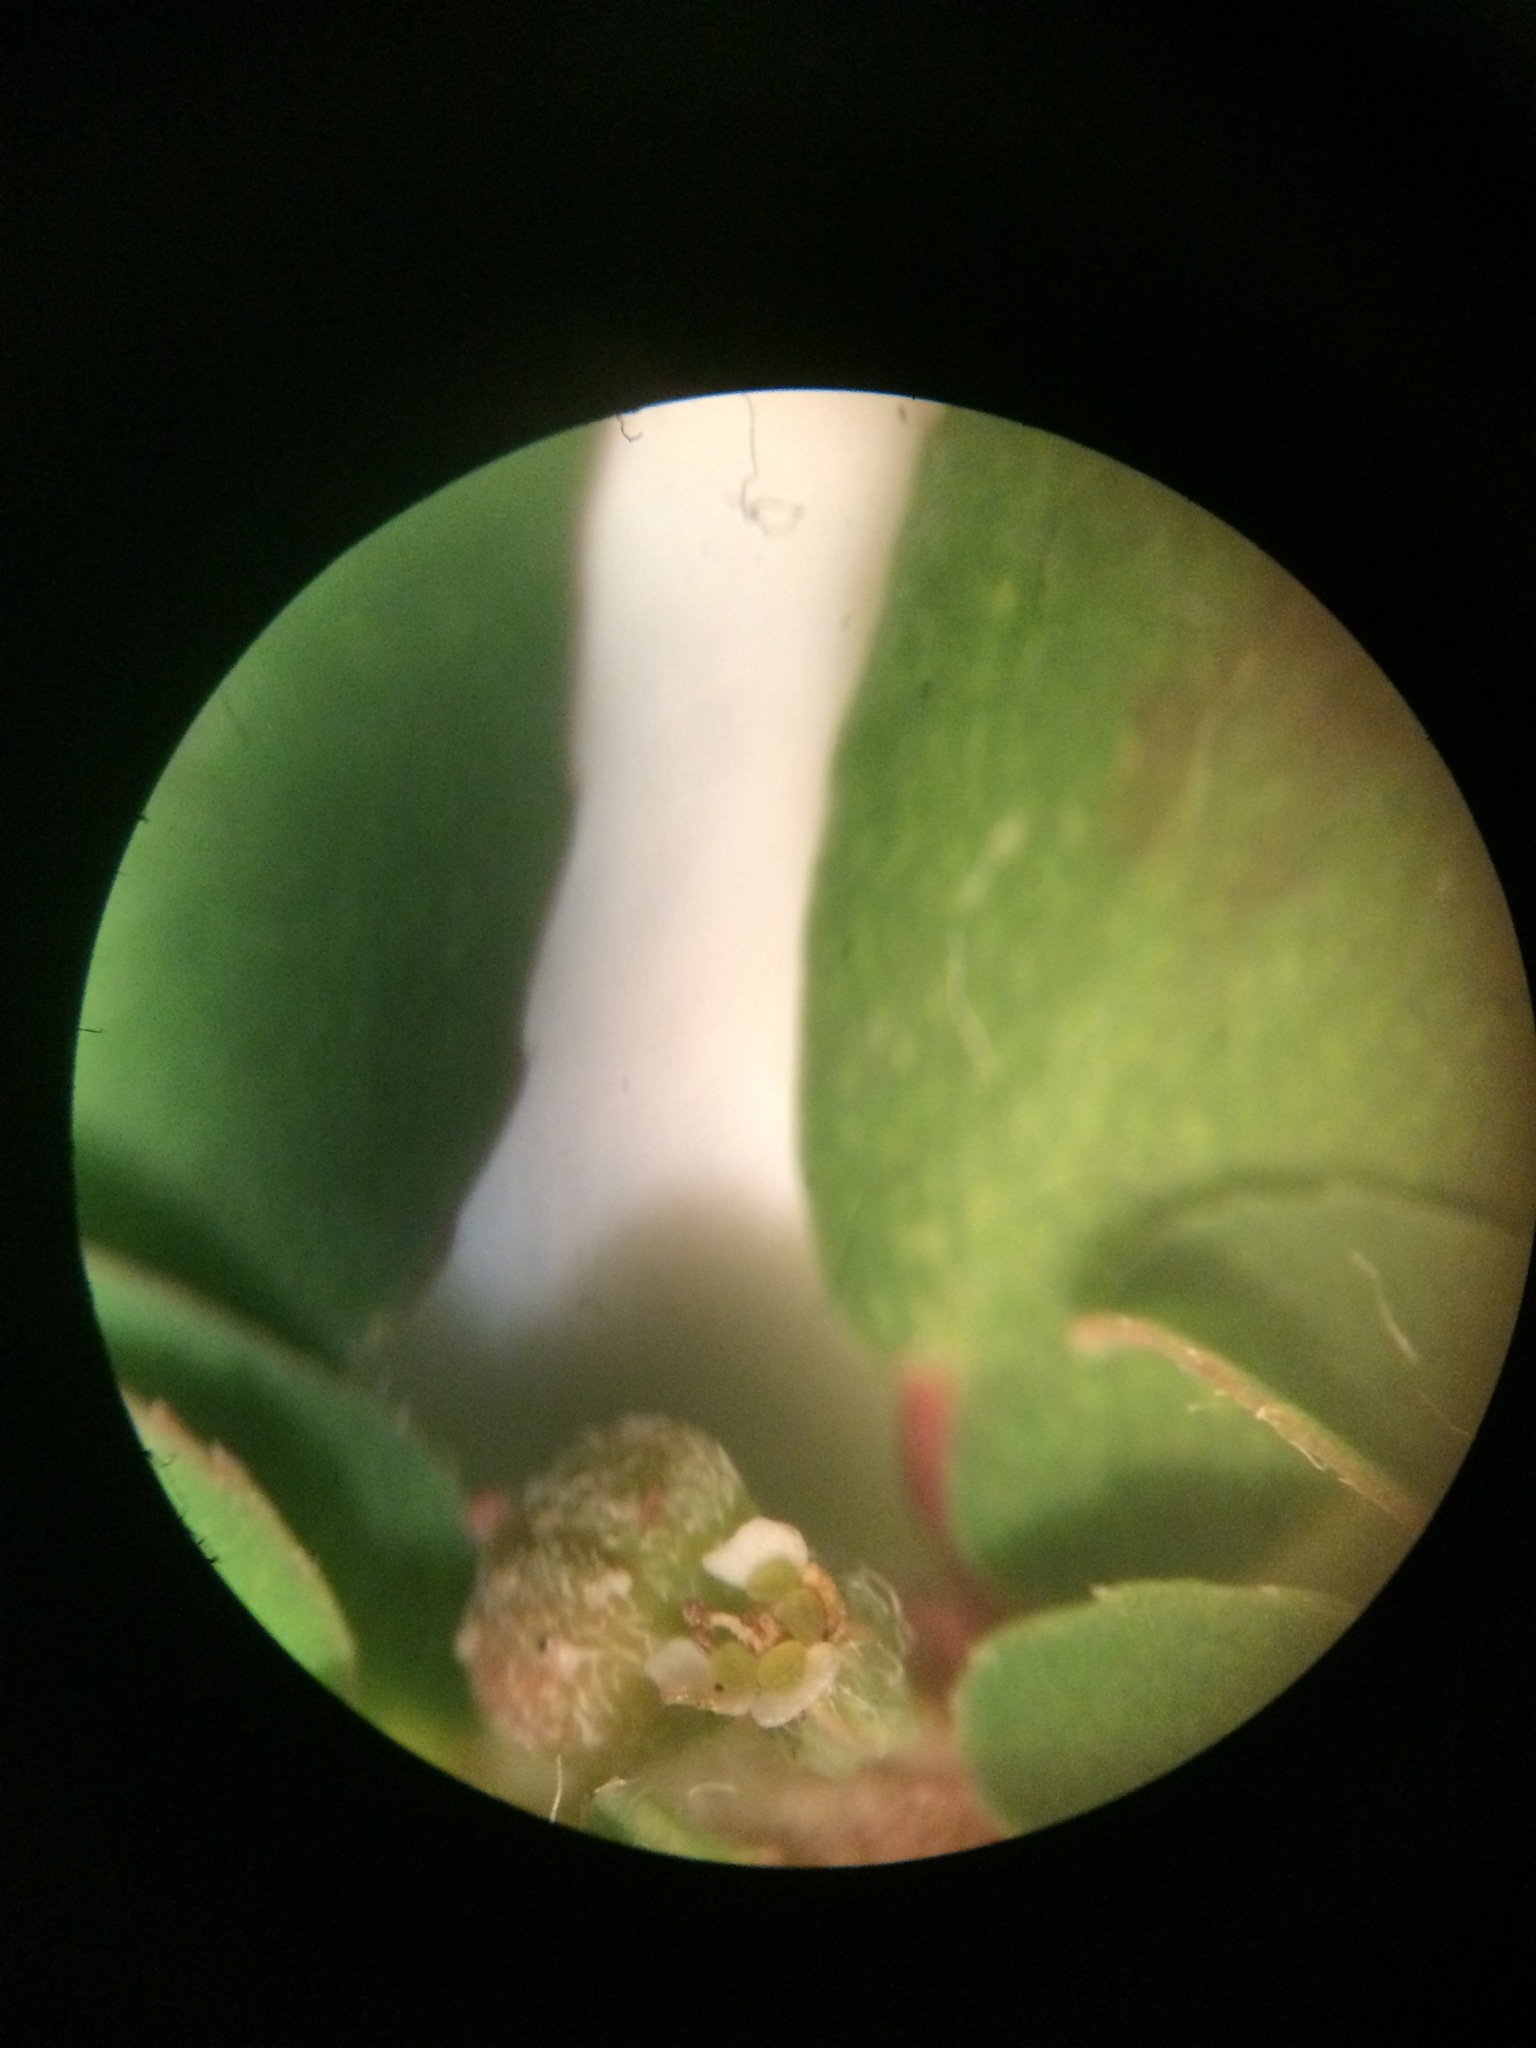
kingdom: Plantae
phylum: Tracheophyta
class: Magnoliopsida
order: Malpighiales
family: Euphorbiaceae
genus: Euphorbia
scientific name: Euphorbia maculata
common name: Spotted spurge
